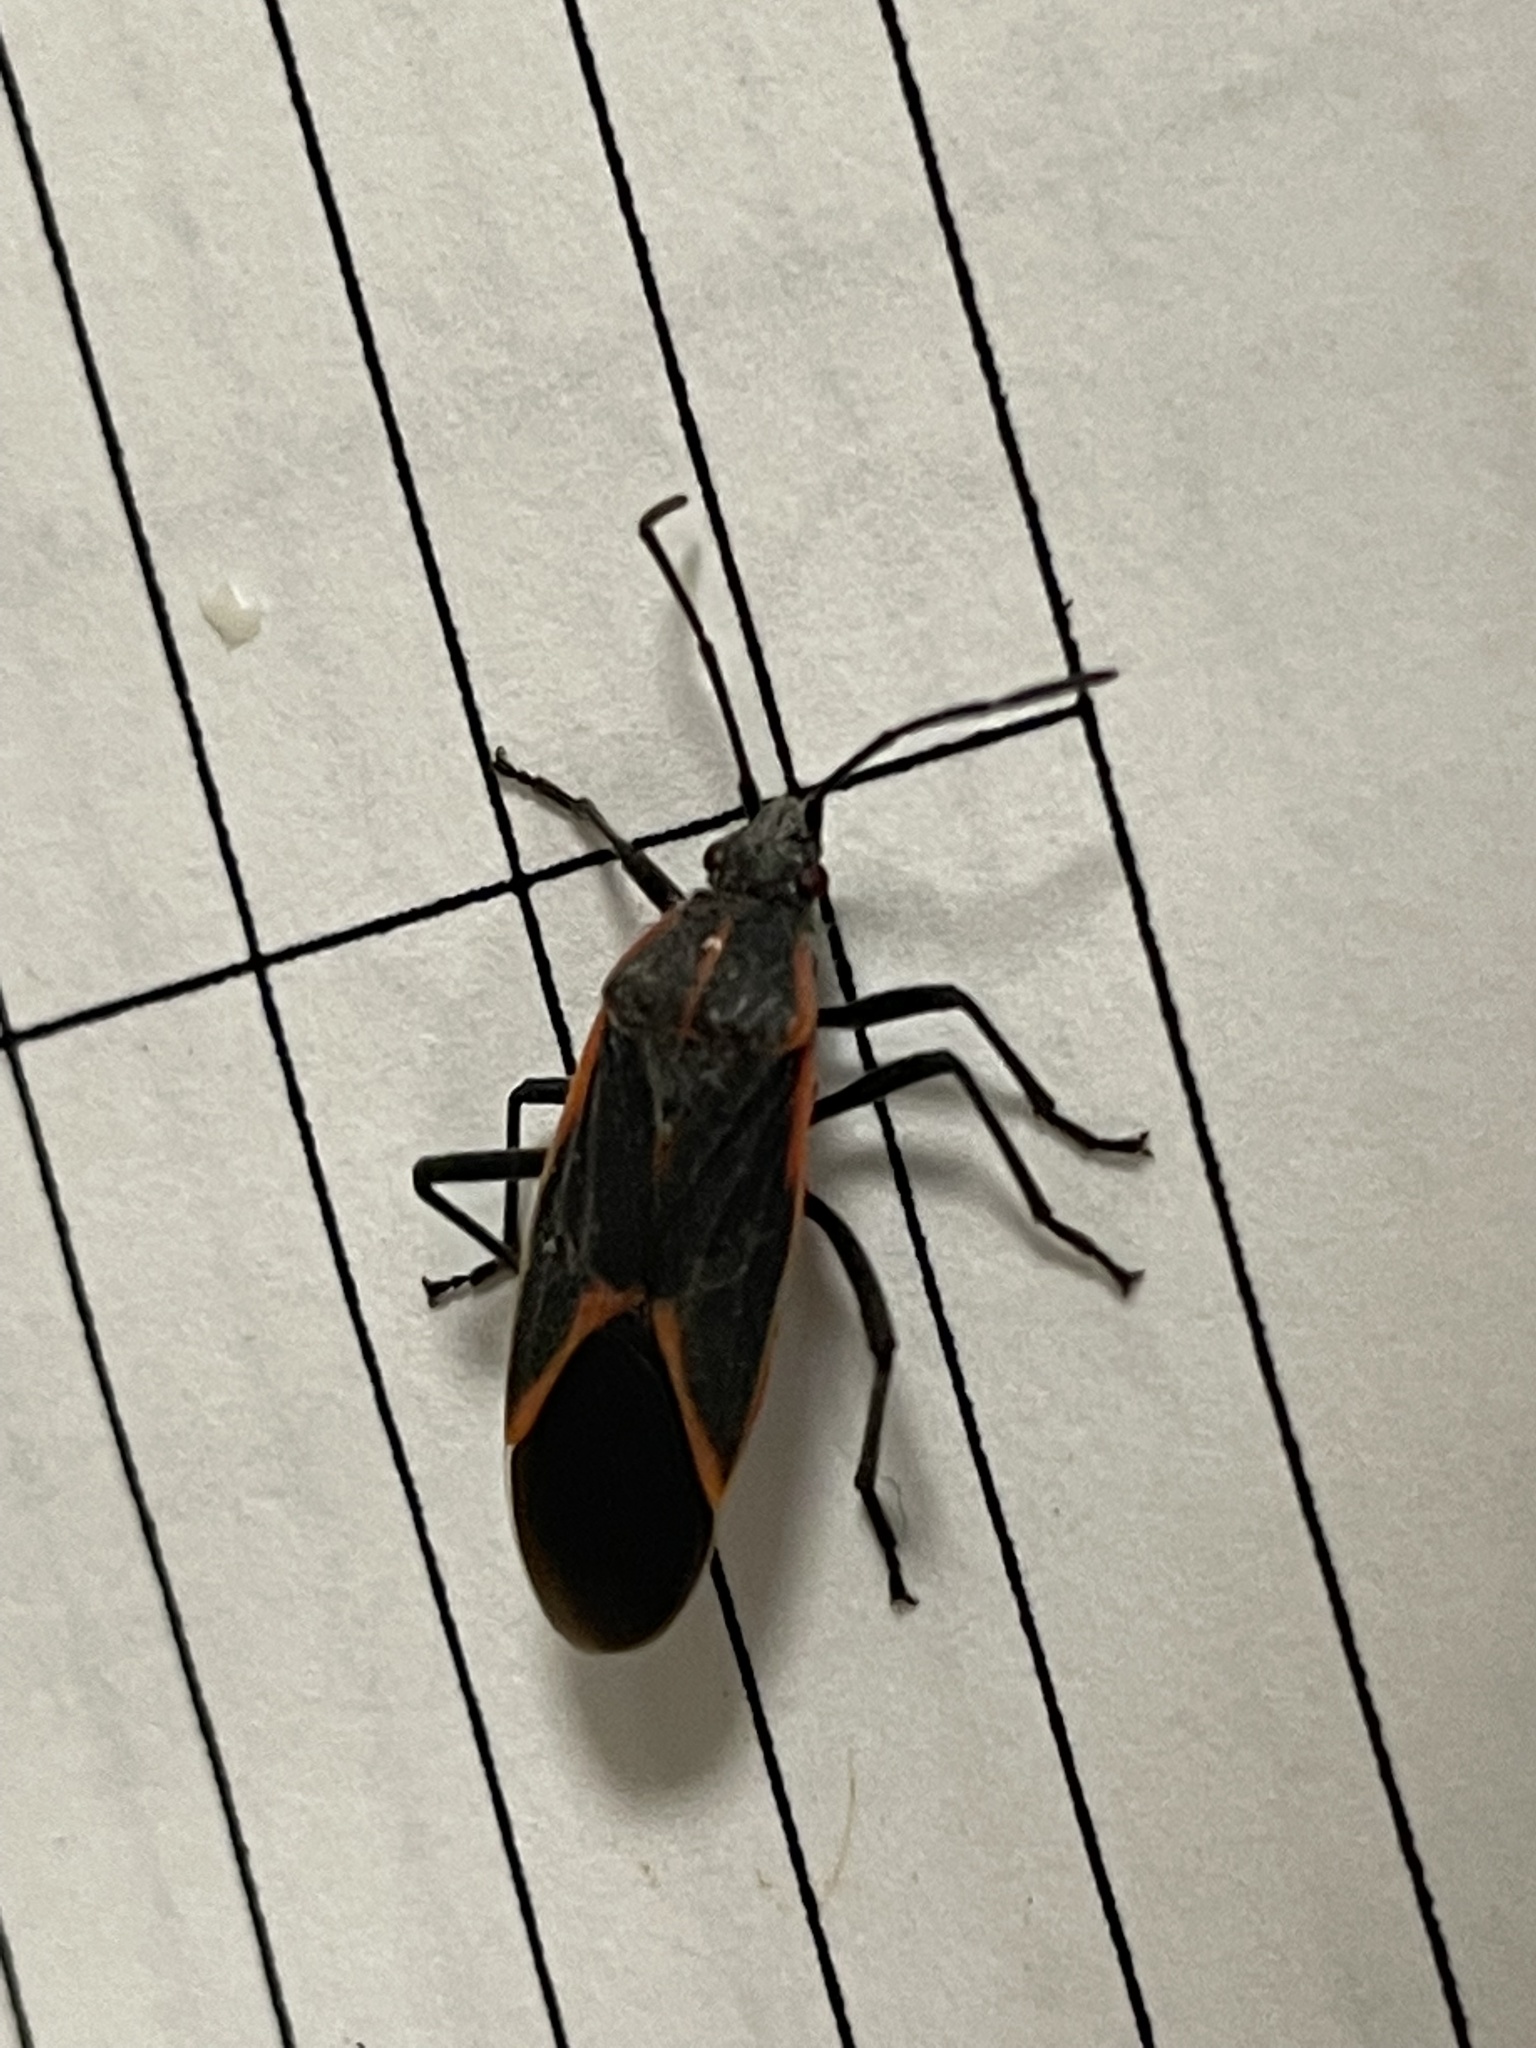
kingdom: Animalia
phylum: Arthropoda
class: Insecta
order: Hemiptera
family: Rhopalidae
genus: Boisea
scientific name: Boisea trivittata
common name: Boxelder bug
